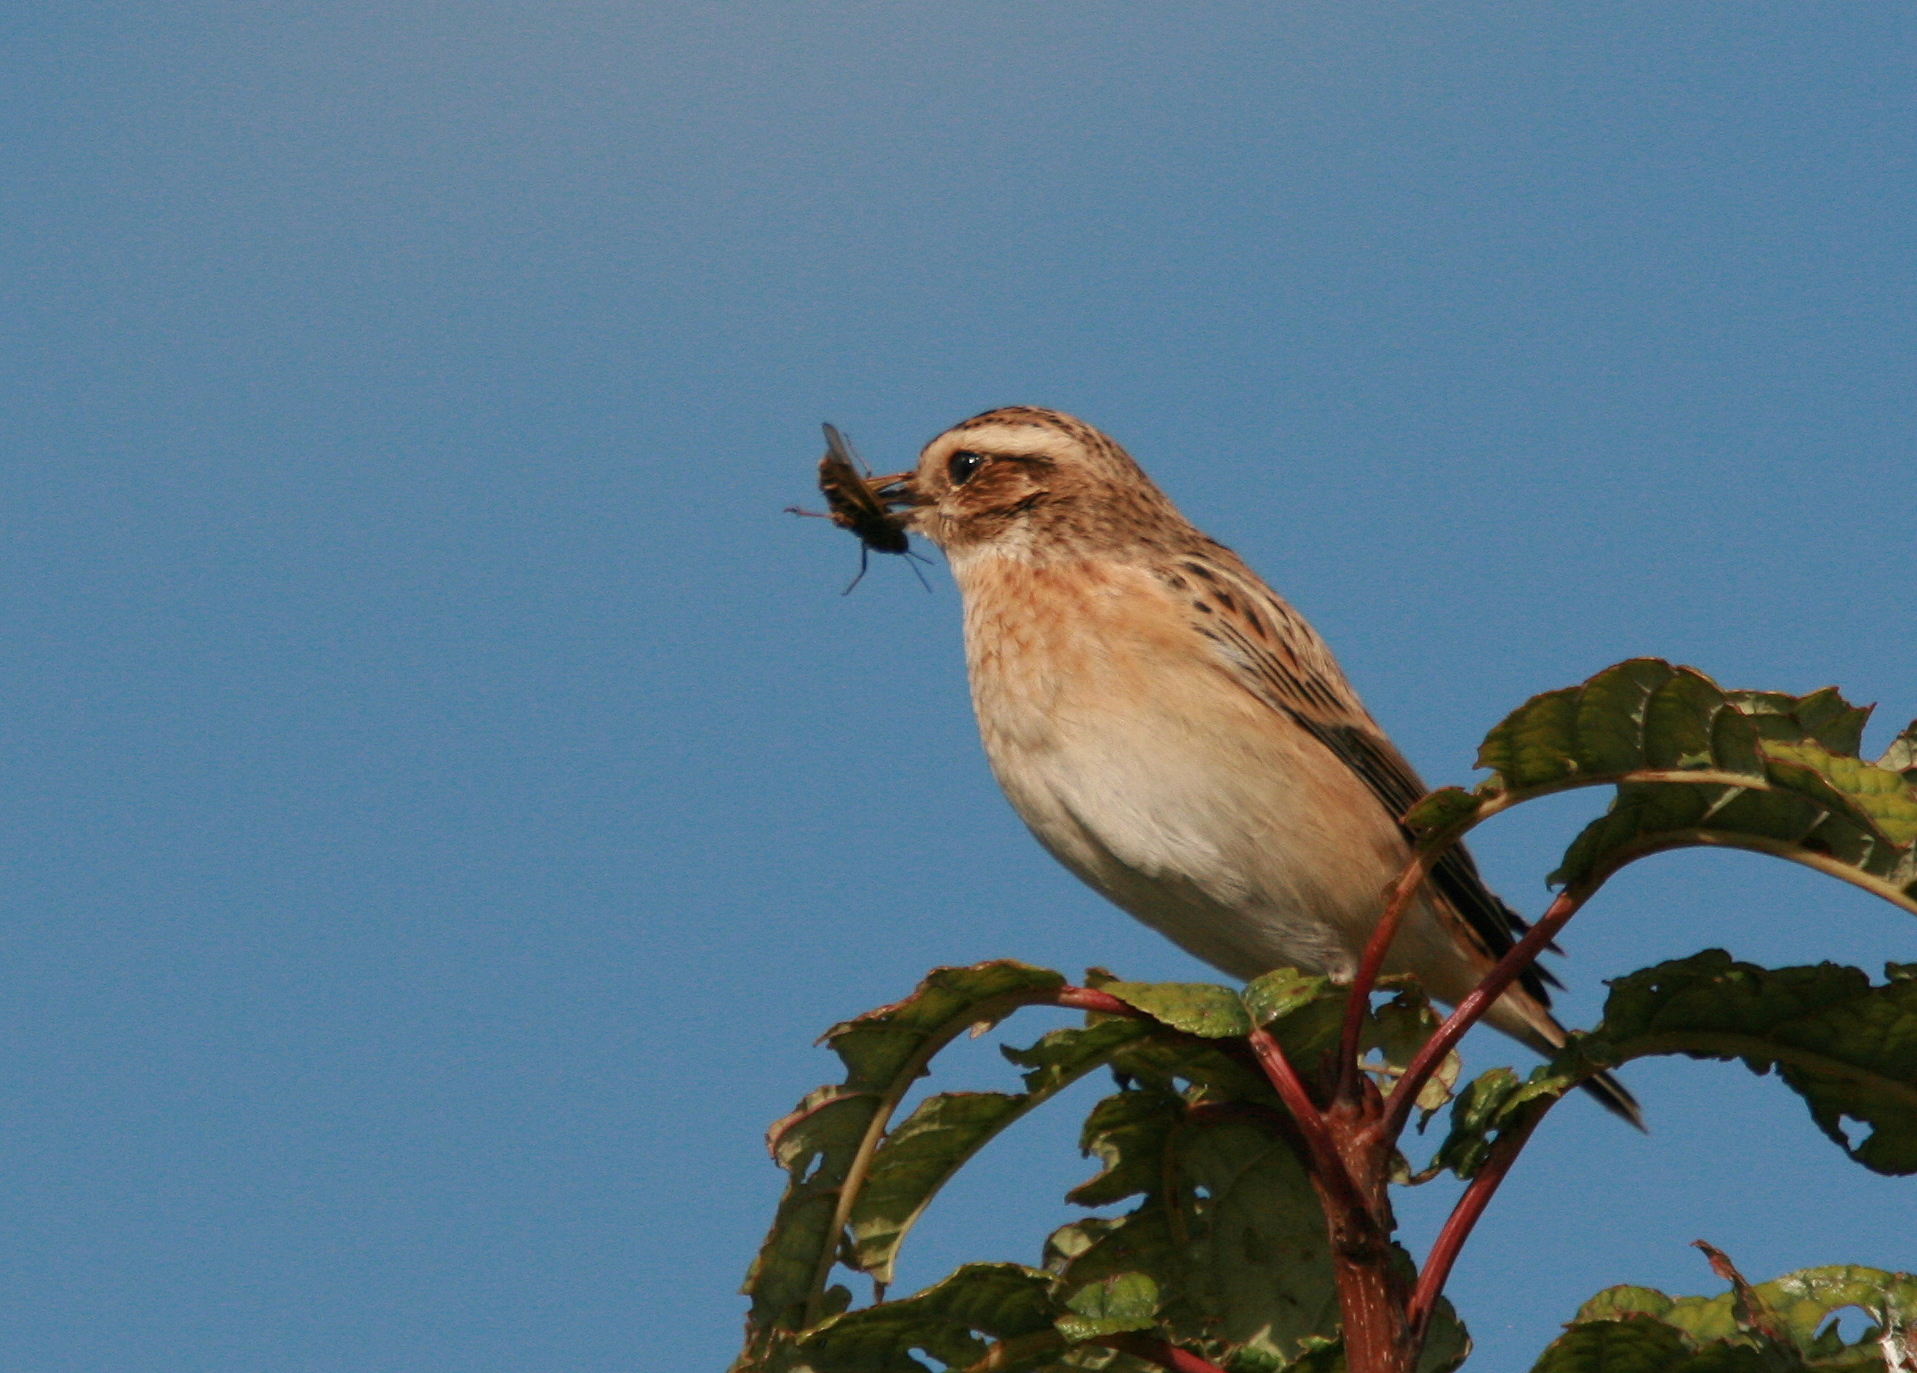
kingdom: Animalia
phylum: Chordata
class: Aves
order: Passeriformes
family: Muscicapidae
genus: Saxicola
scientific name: Saxicola rubetra
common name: Whinchat
